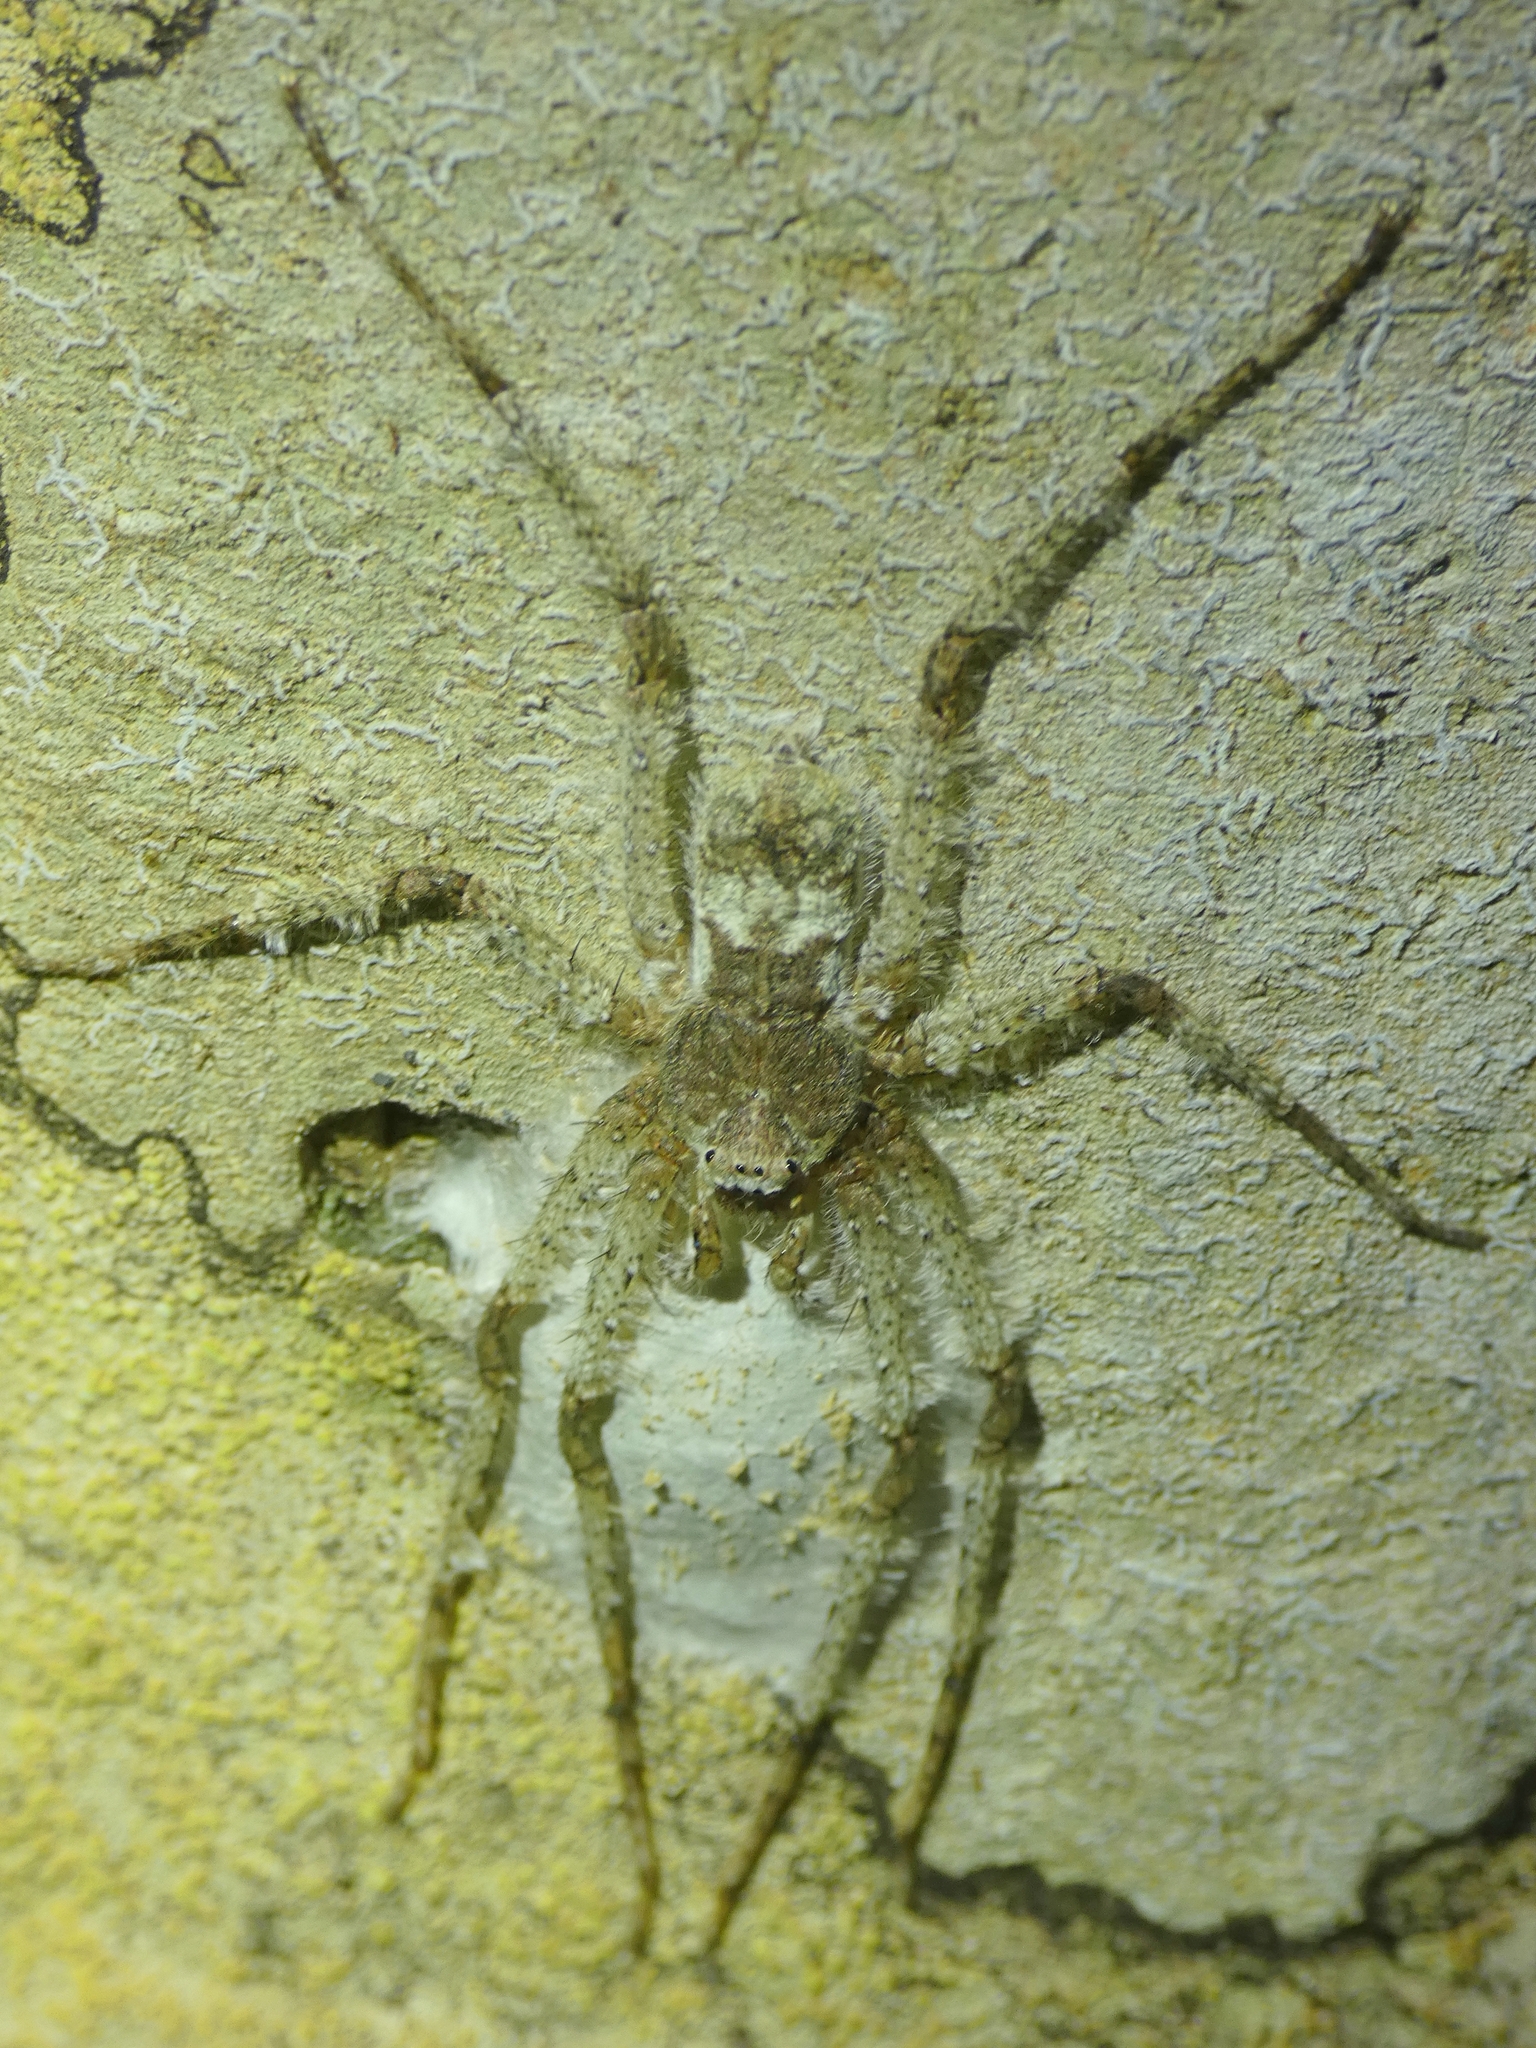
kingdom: Animalia
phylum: Arthropoda
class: Arachnida
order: Araneae
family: Sparassidae
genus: Pandercetes
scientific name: Pandercetes gracilis
